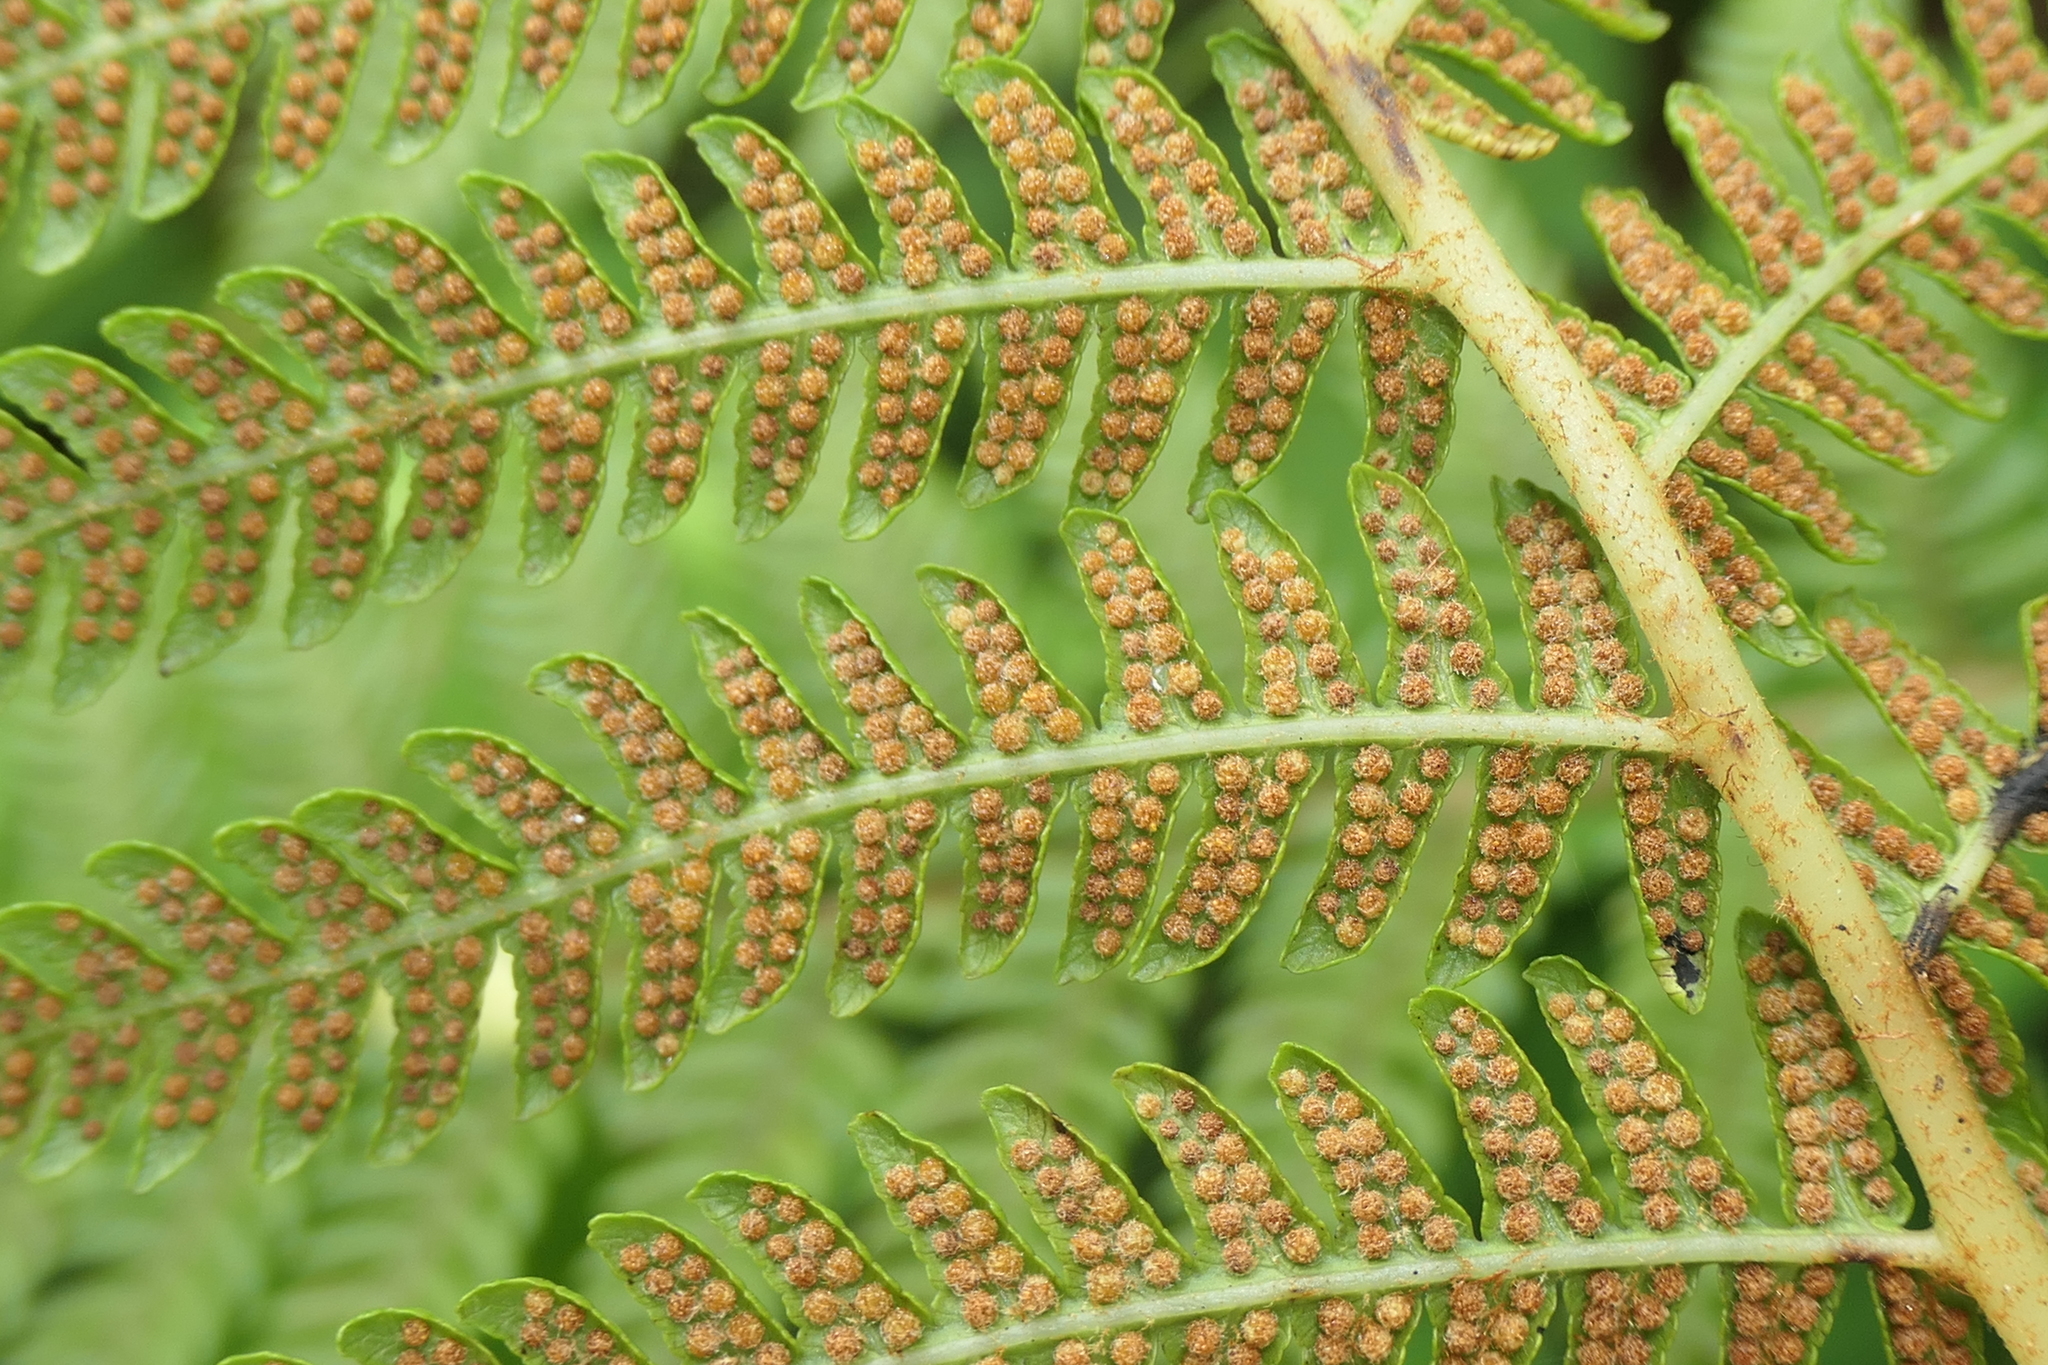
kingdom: Plantae
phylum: Tracheophyta
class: Polypodiopsida
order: Cyatheales
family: Cyatheaceae
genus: Sphaeropteris
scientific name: Sphaeropteris cooperi
